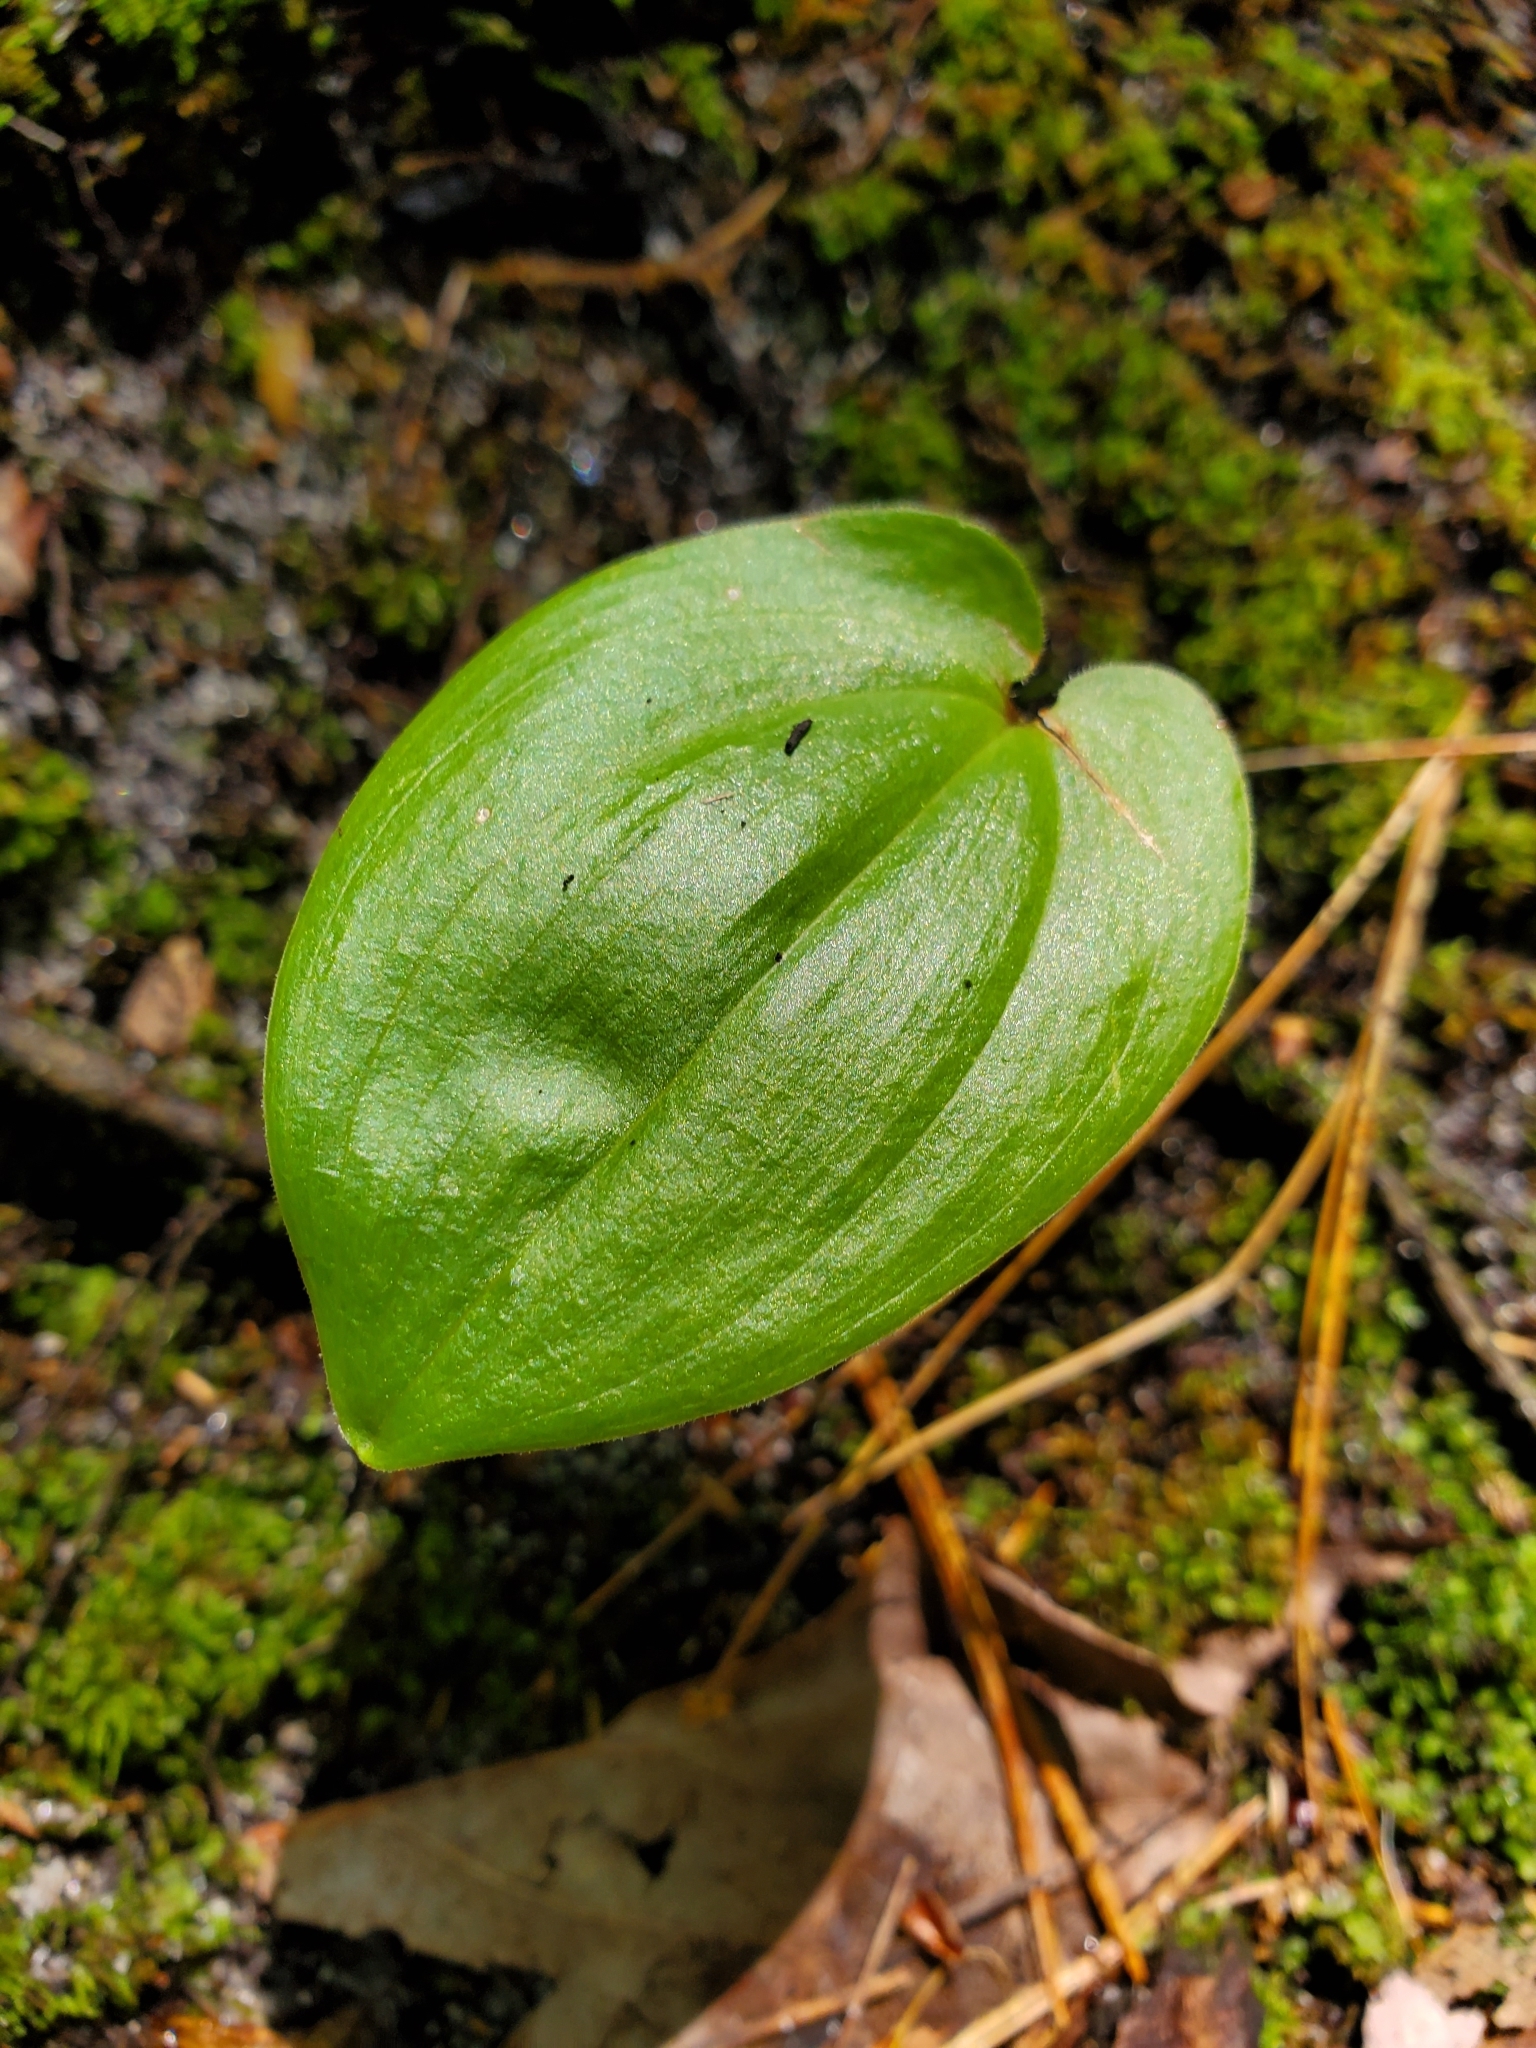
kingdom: Plantae
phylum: Tracheophyta
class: Liliopsida
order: Asparagales
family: Asparagaceae
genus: Maianthemum
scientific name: Maianthemum canadense
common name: False lily-of-the-valley
